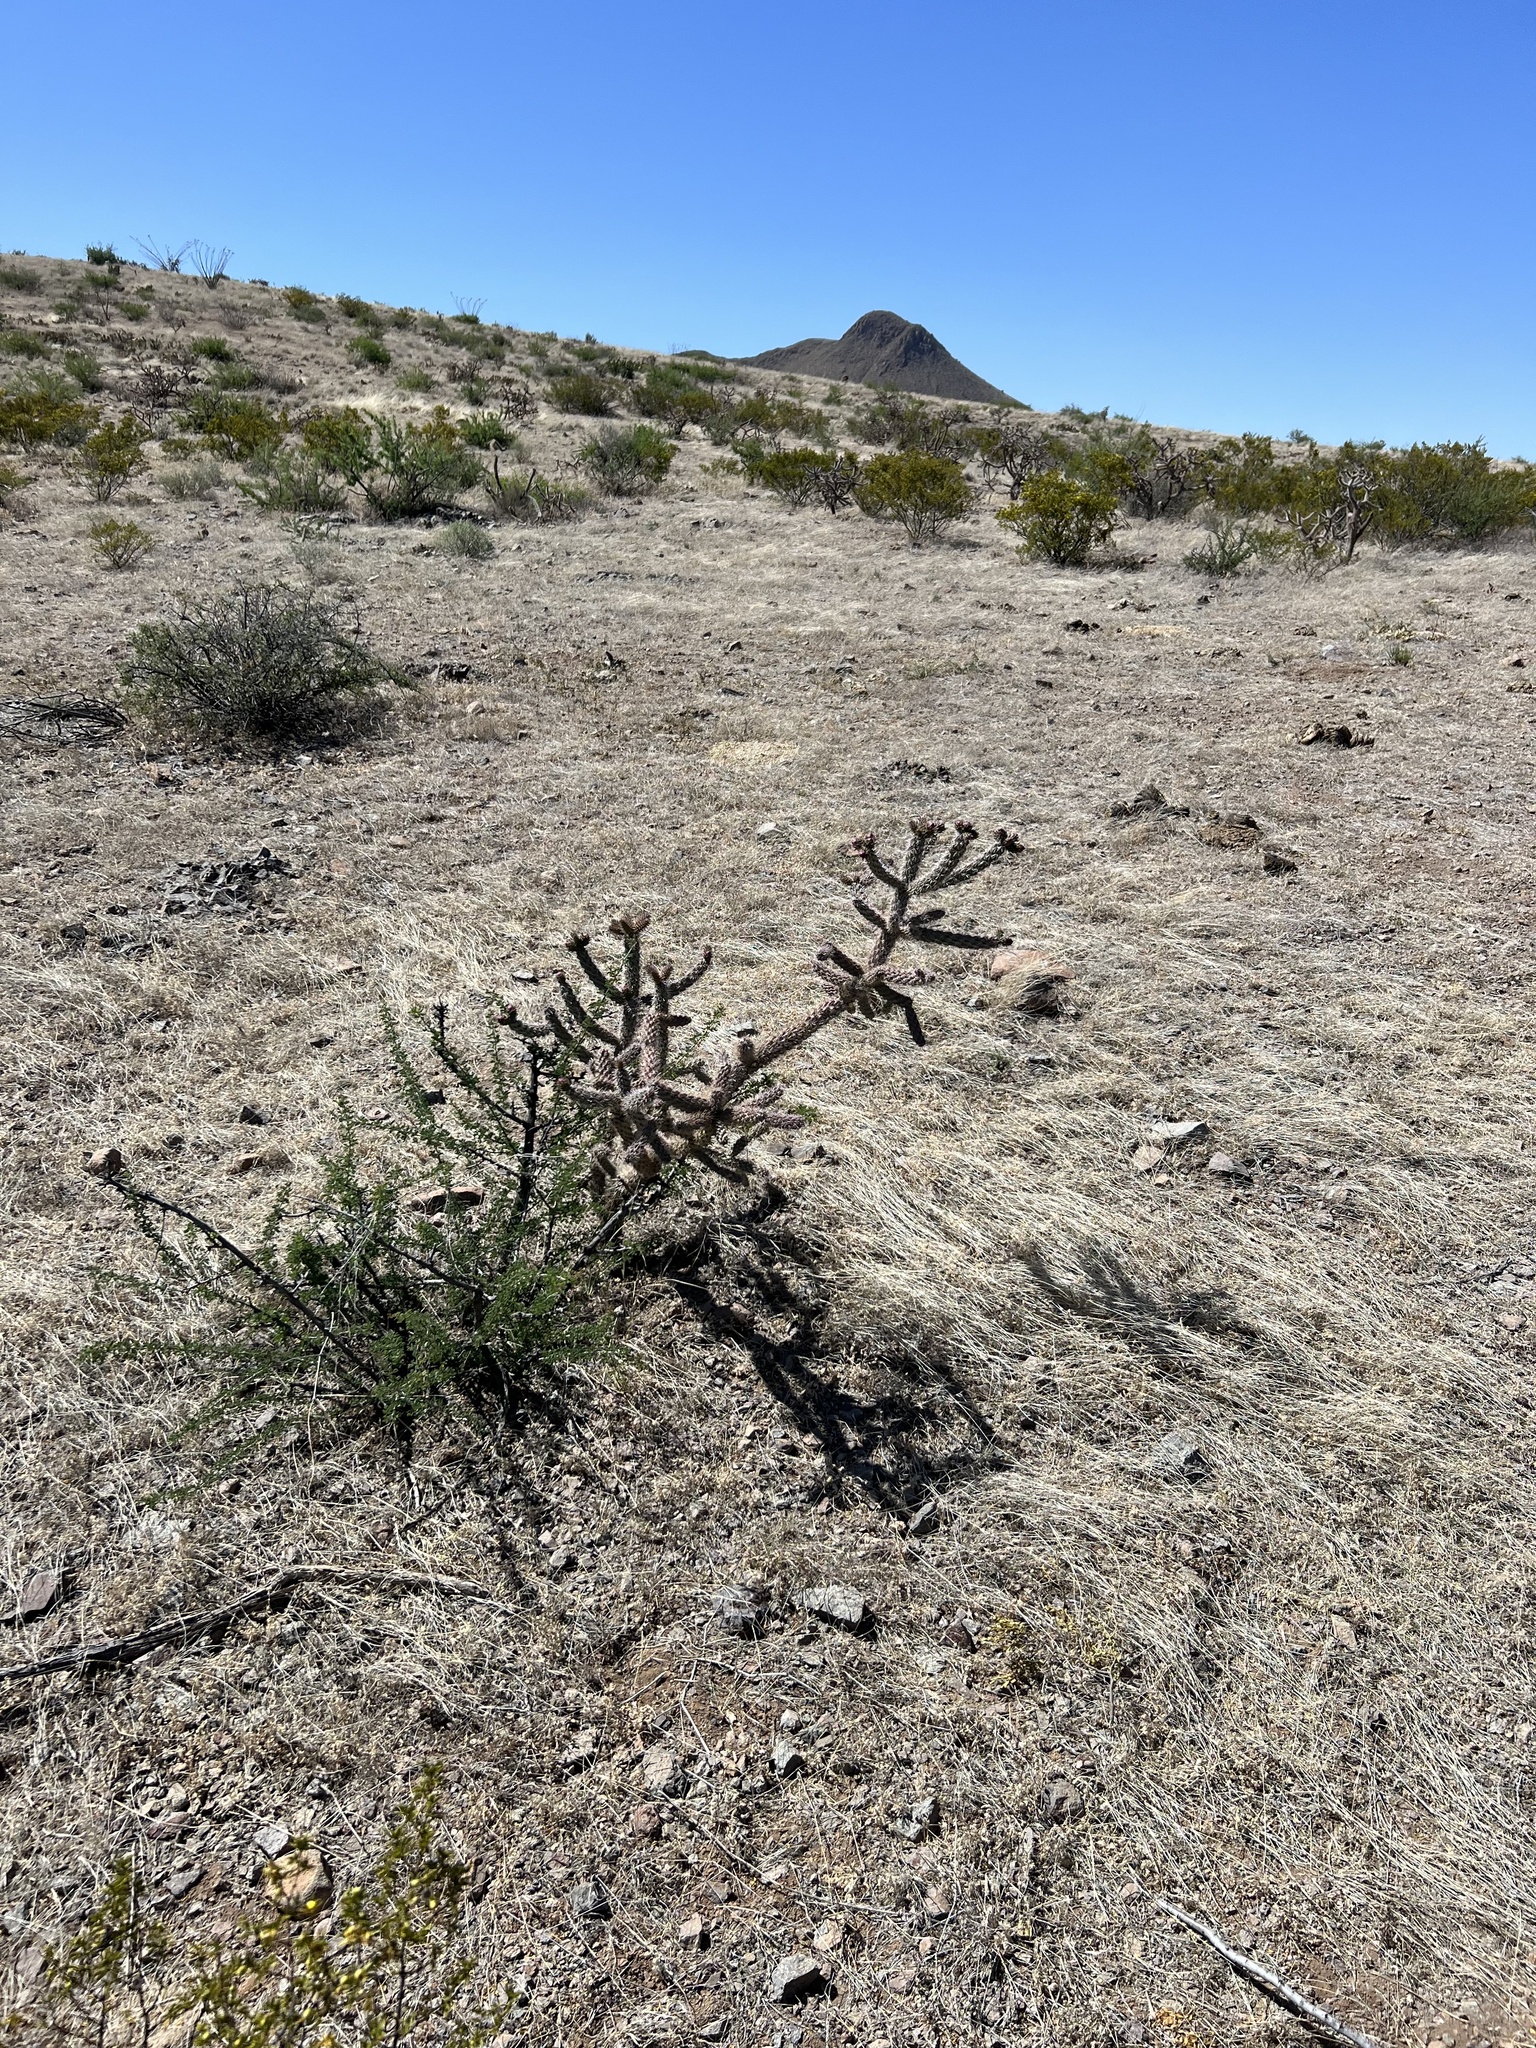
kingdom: Plantae
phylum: Tracheophyta
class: Magnoliopsida
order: Caryophyllales
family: Cactaceae
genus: Cylindropuntia
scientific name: Cylindropuntia imbricata
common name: Candelabrum cactus
